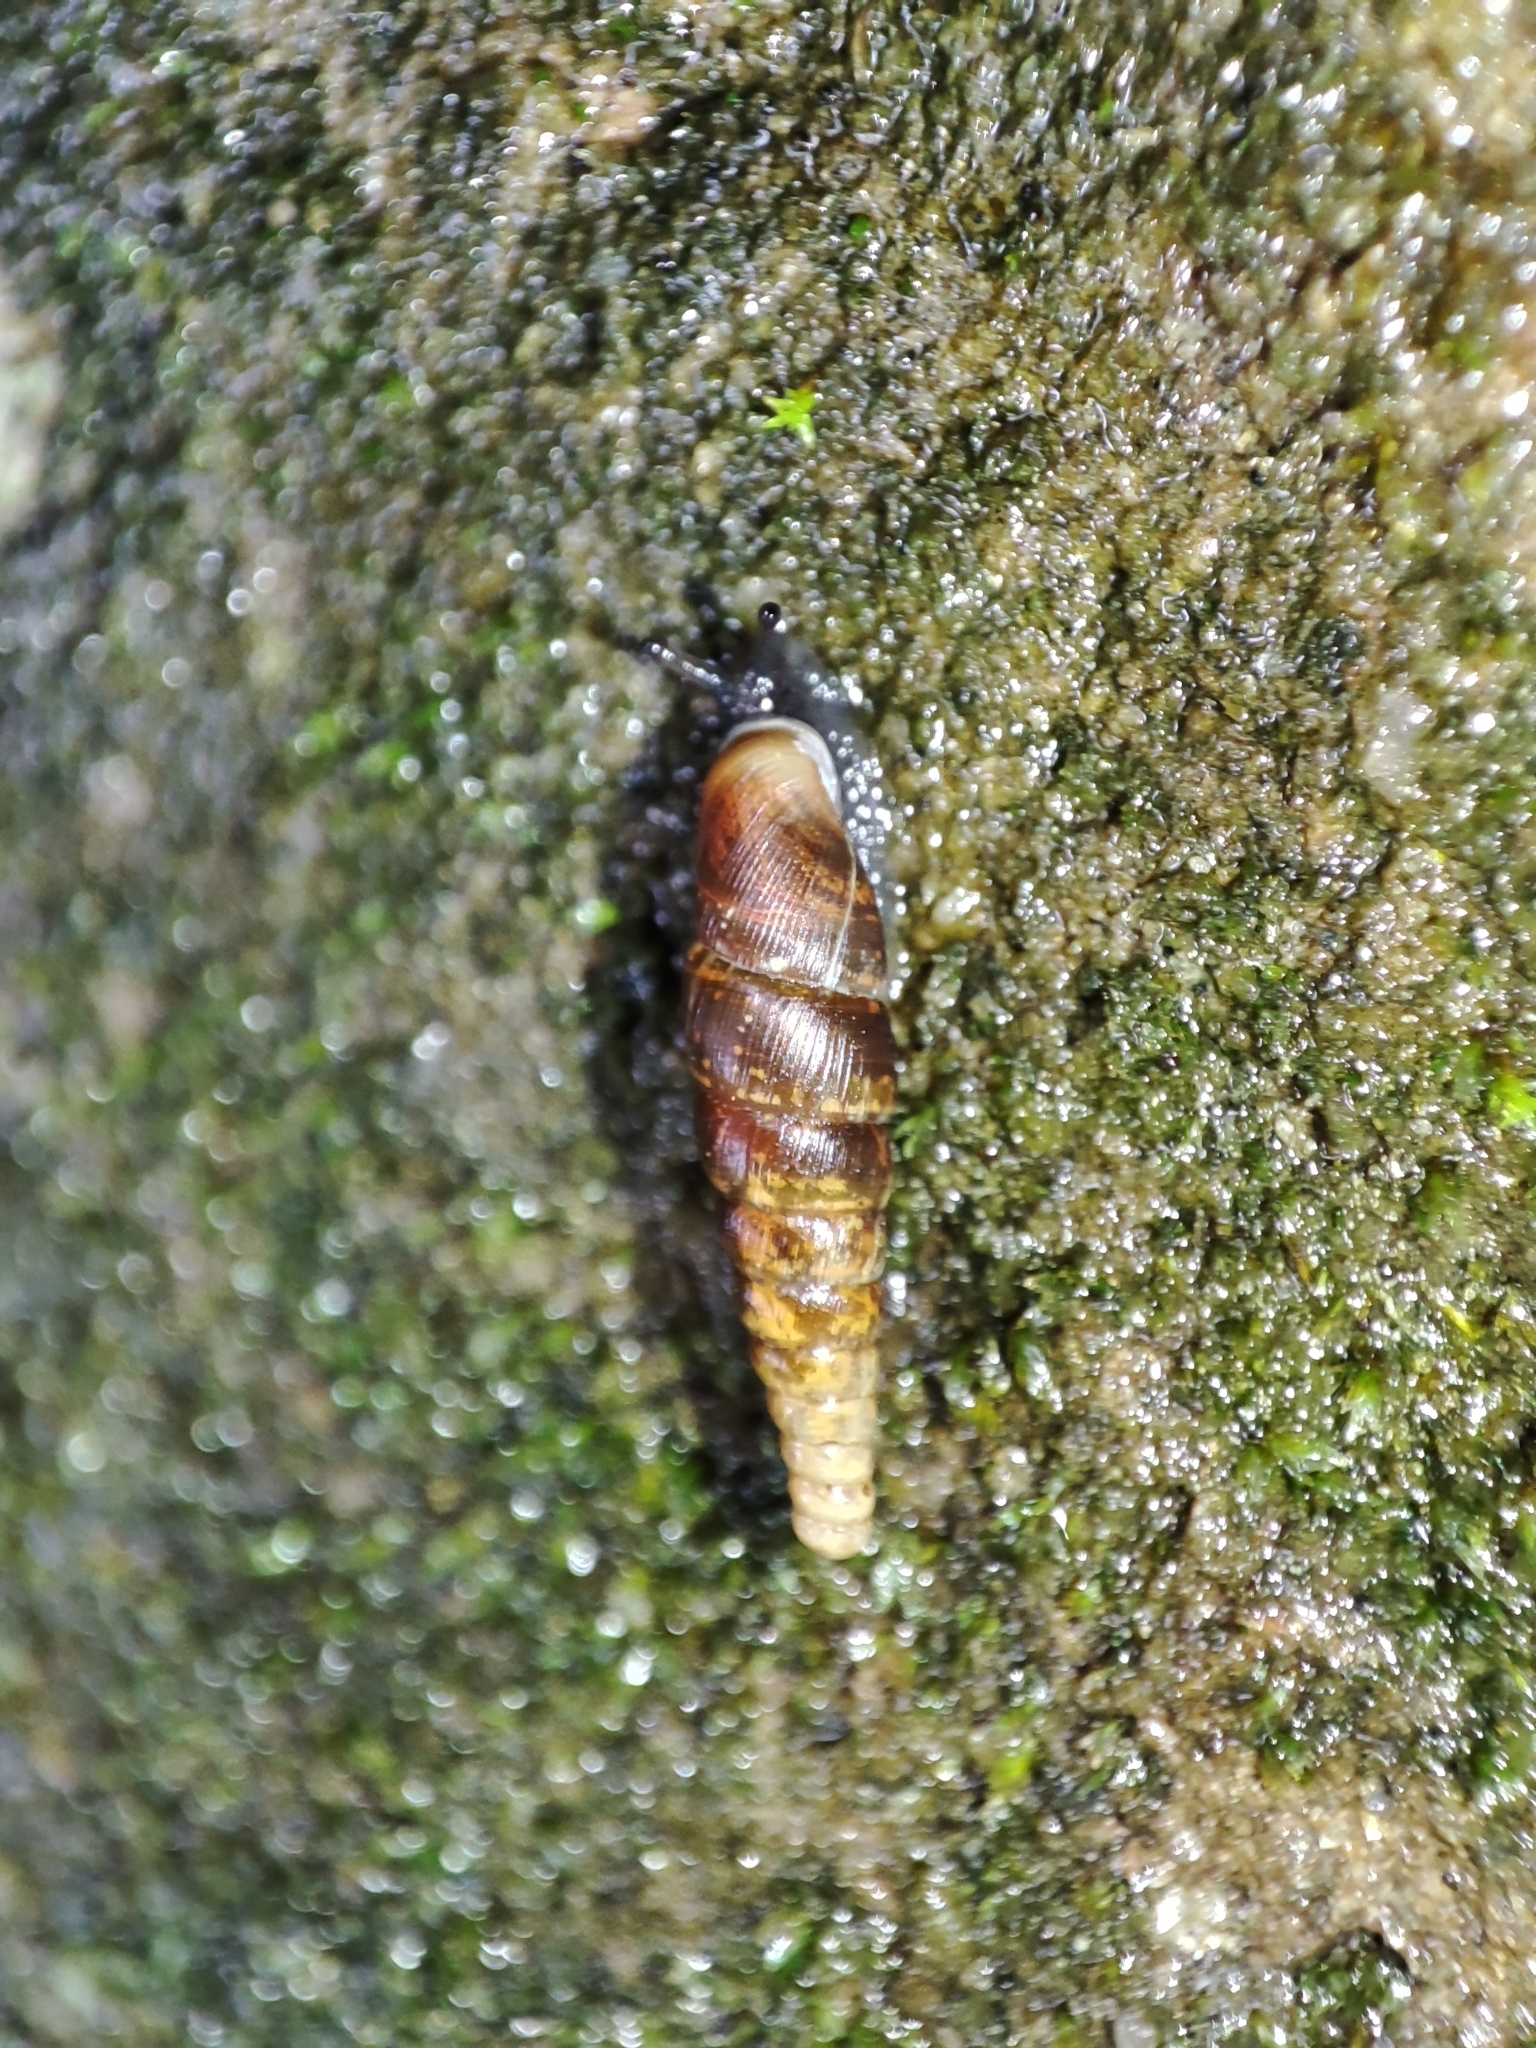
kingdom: Animalia
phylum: Mollusca
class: Gastropoda
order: Stylommatophora
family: Clausiliidae
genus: Cochlodina
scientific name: Cochlodina orthostoma
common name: Straightmouth door snail
